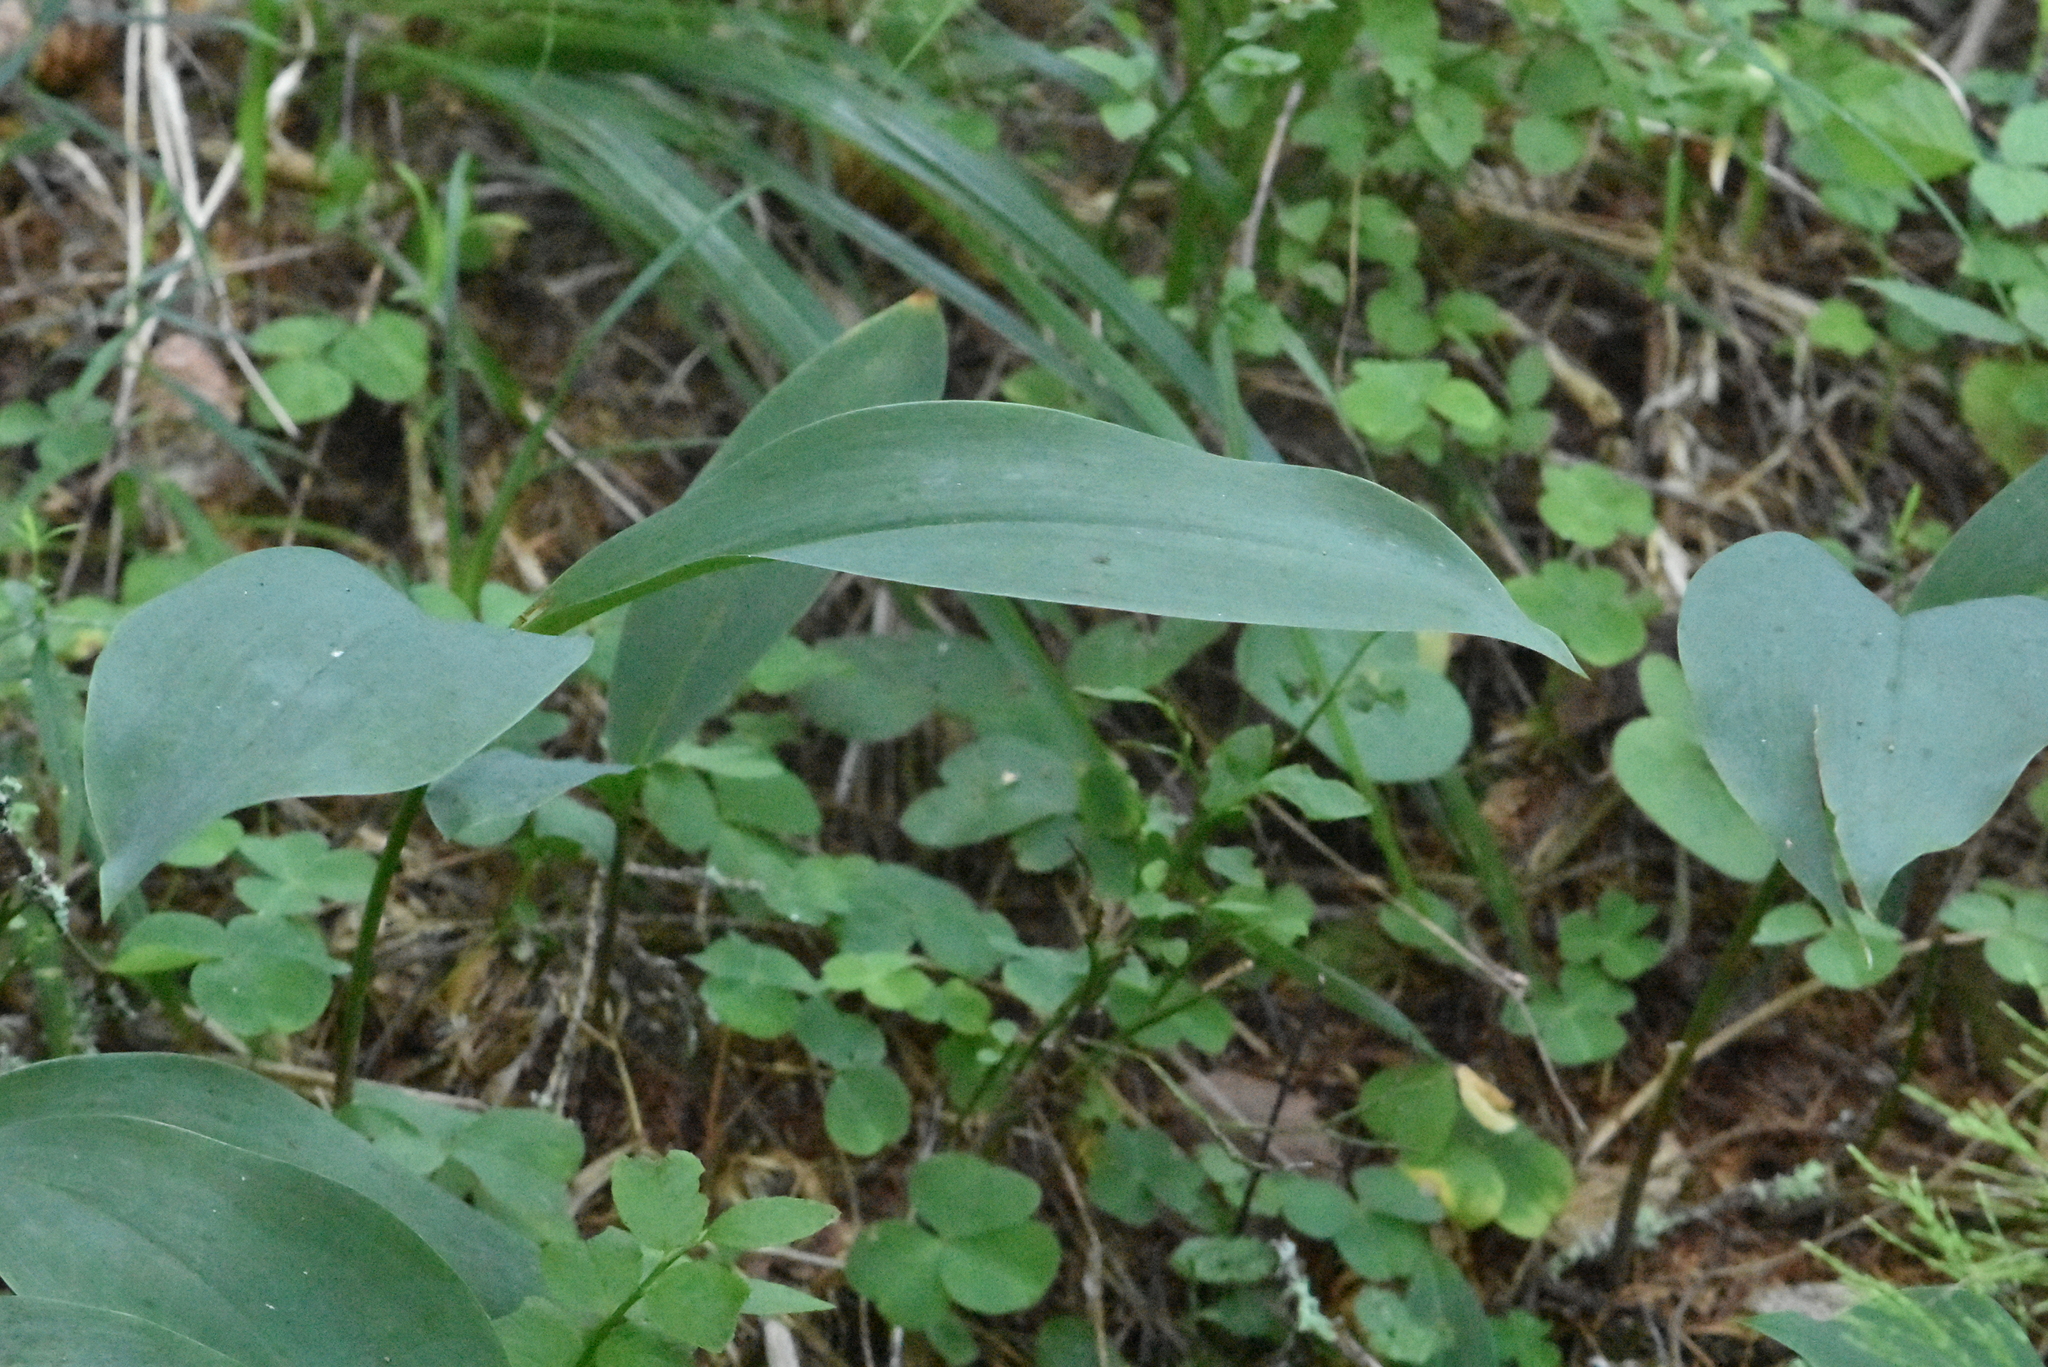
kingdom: Plantae
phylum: Tracheophyta
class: Liliopsida
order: Asparagales
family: Asparagaceae
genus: Convallaria
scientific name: Convallaria majalis
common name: Lily-of-the-valley
